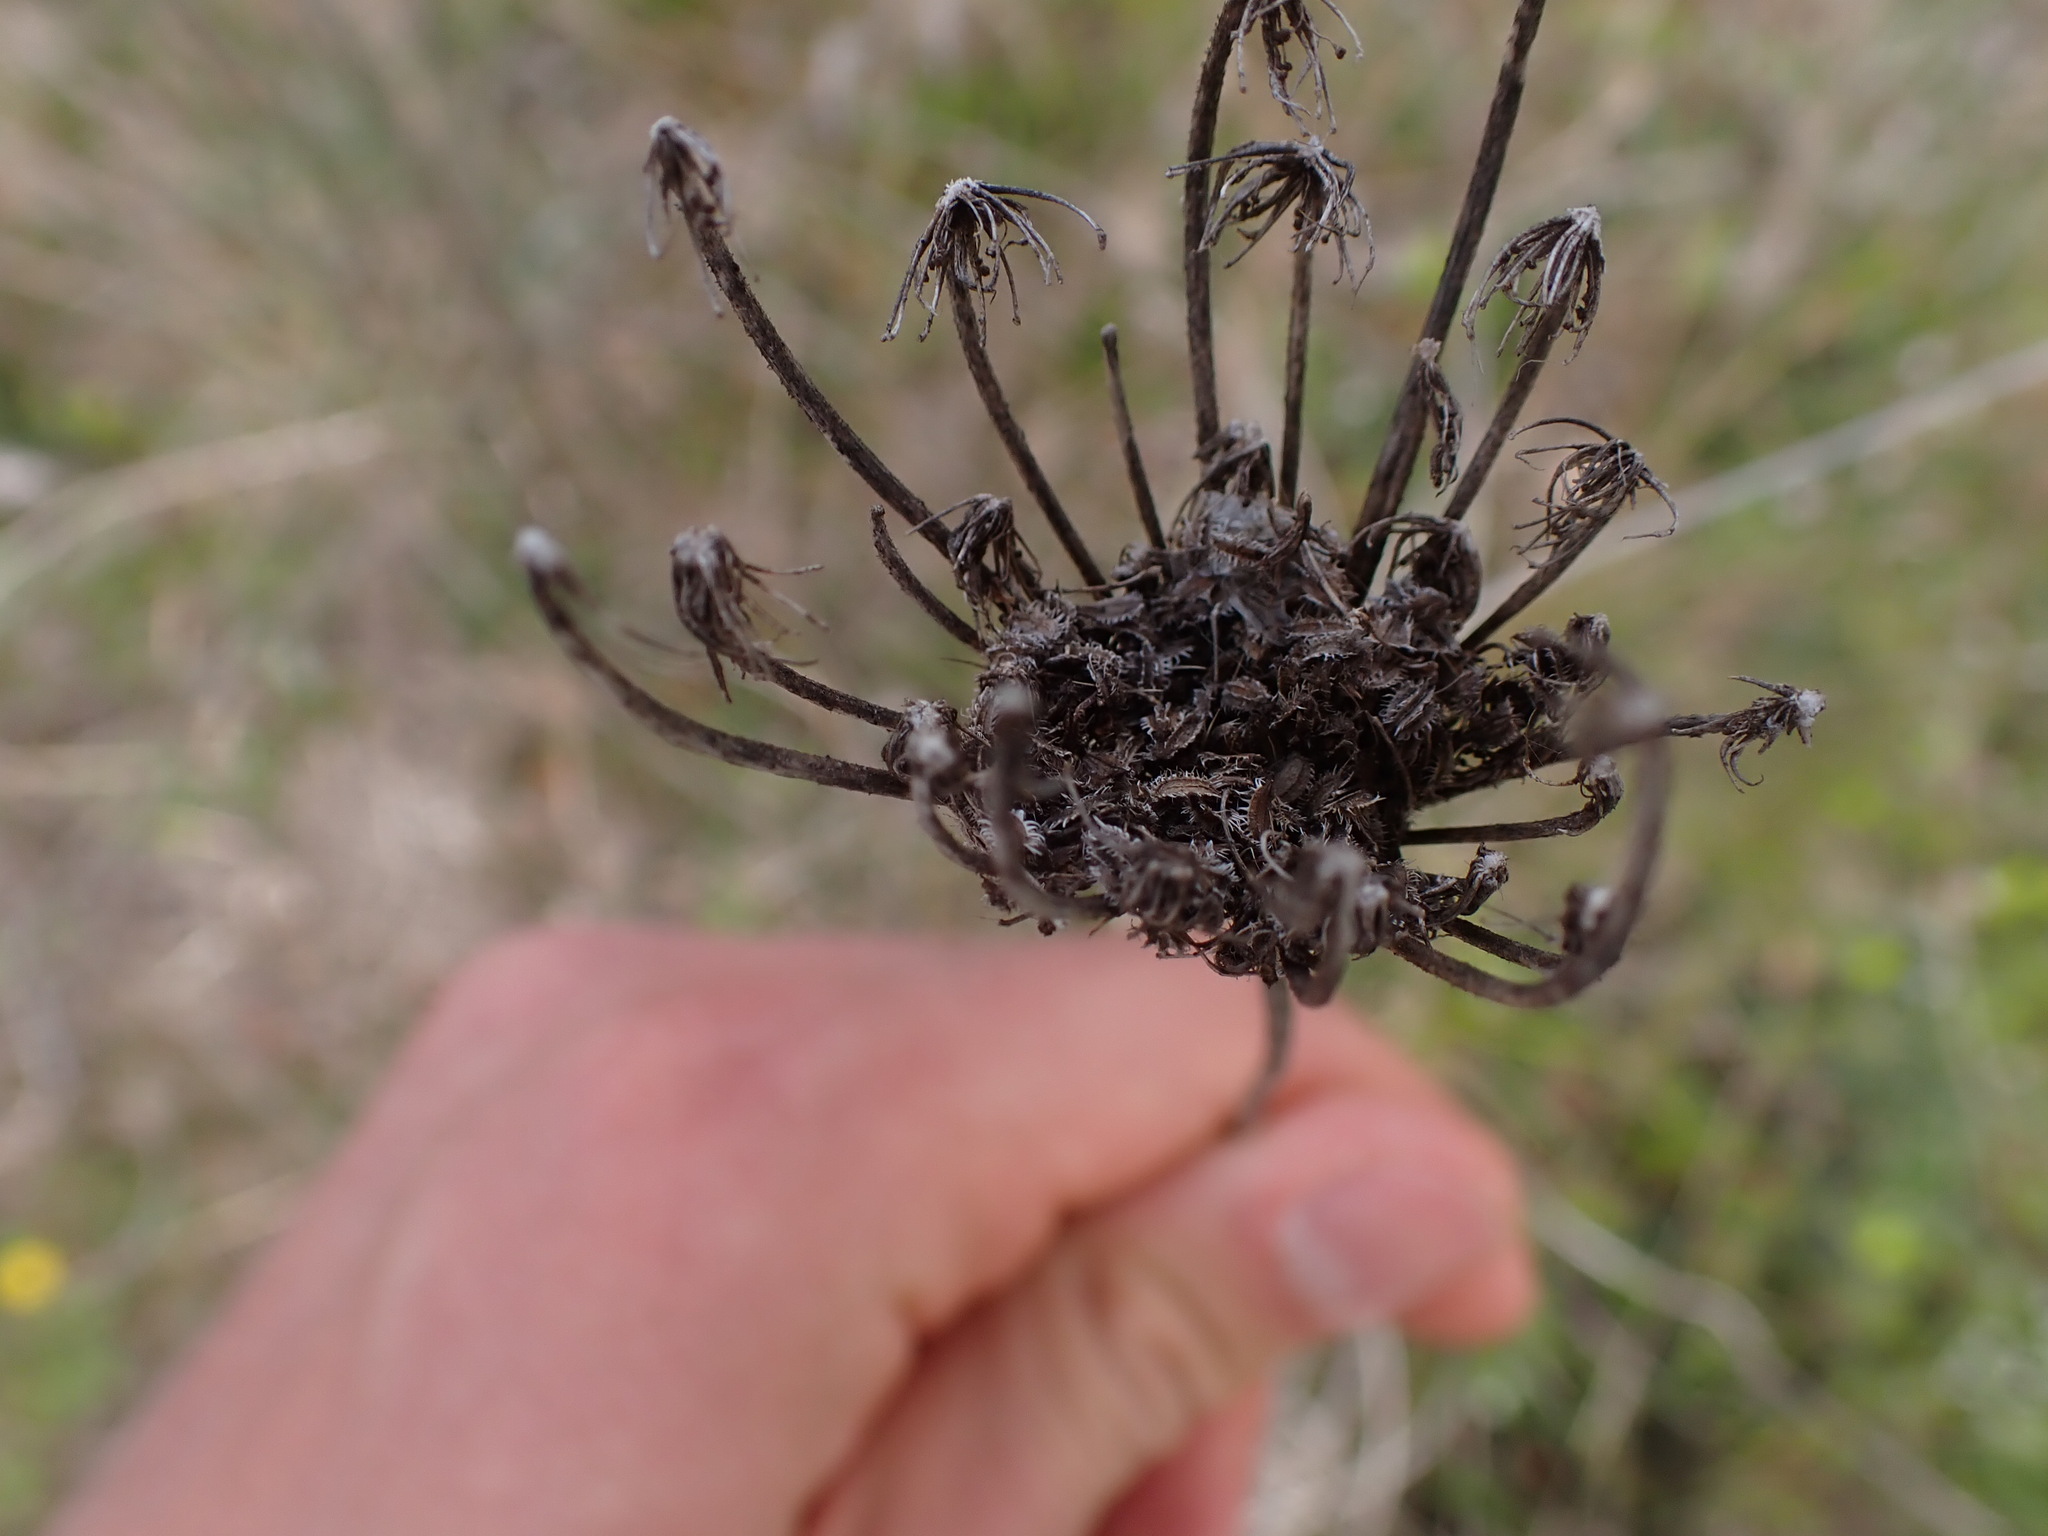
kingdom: Plantae
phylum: Tracheophyta
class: Magnoliopsida
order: Apiales
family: Apiaceae
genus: Daucus
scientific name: Daucus carota
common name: Wild carrot
